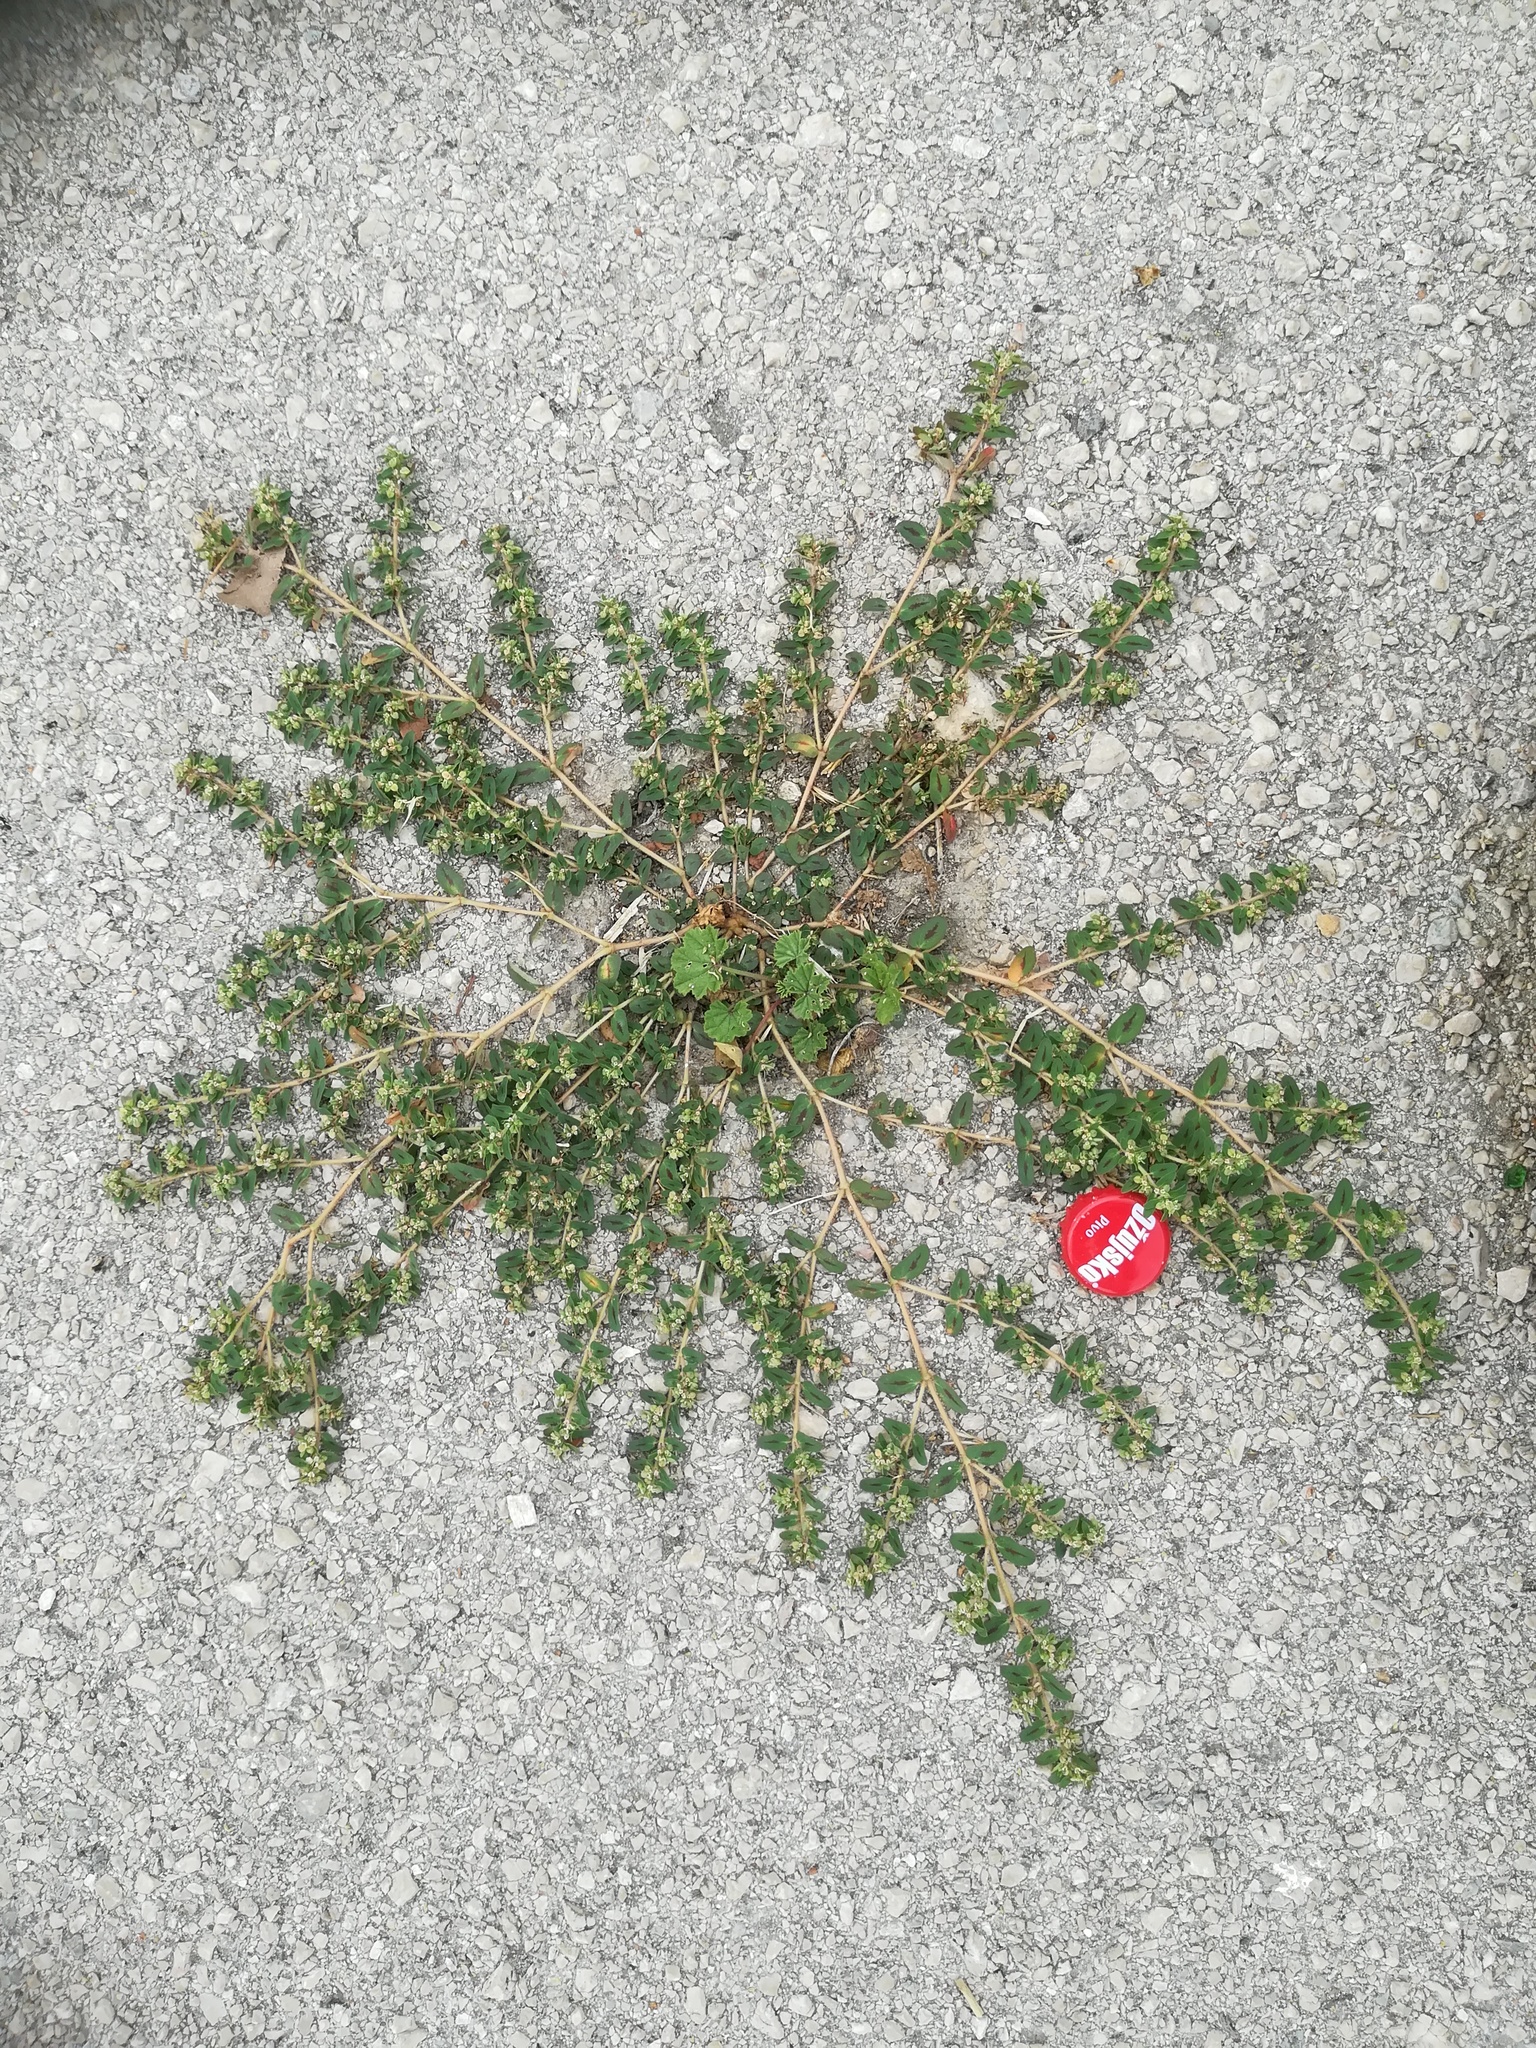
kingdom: Plantae
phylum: Tracheophyta
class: Magnoliopsida
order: Malpighiales
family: Euphorbiaceae
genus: Euphorbia
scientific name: Euphorbia maculata
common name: Spotted spurge
